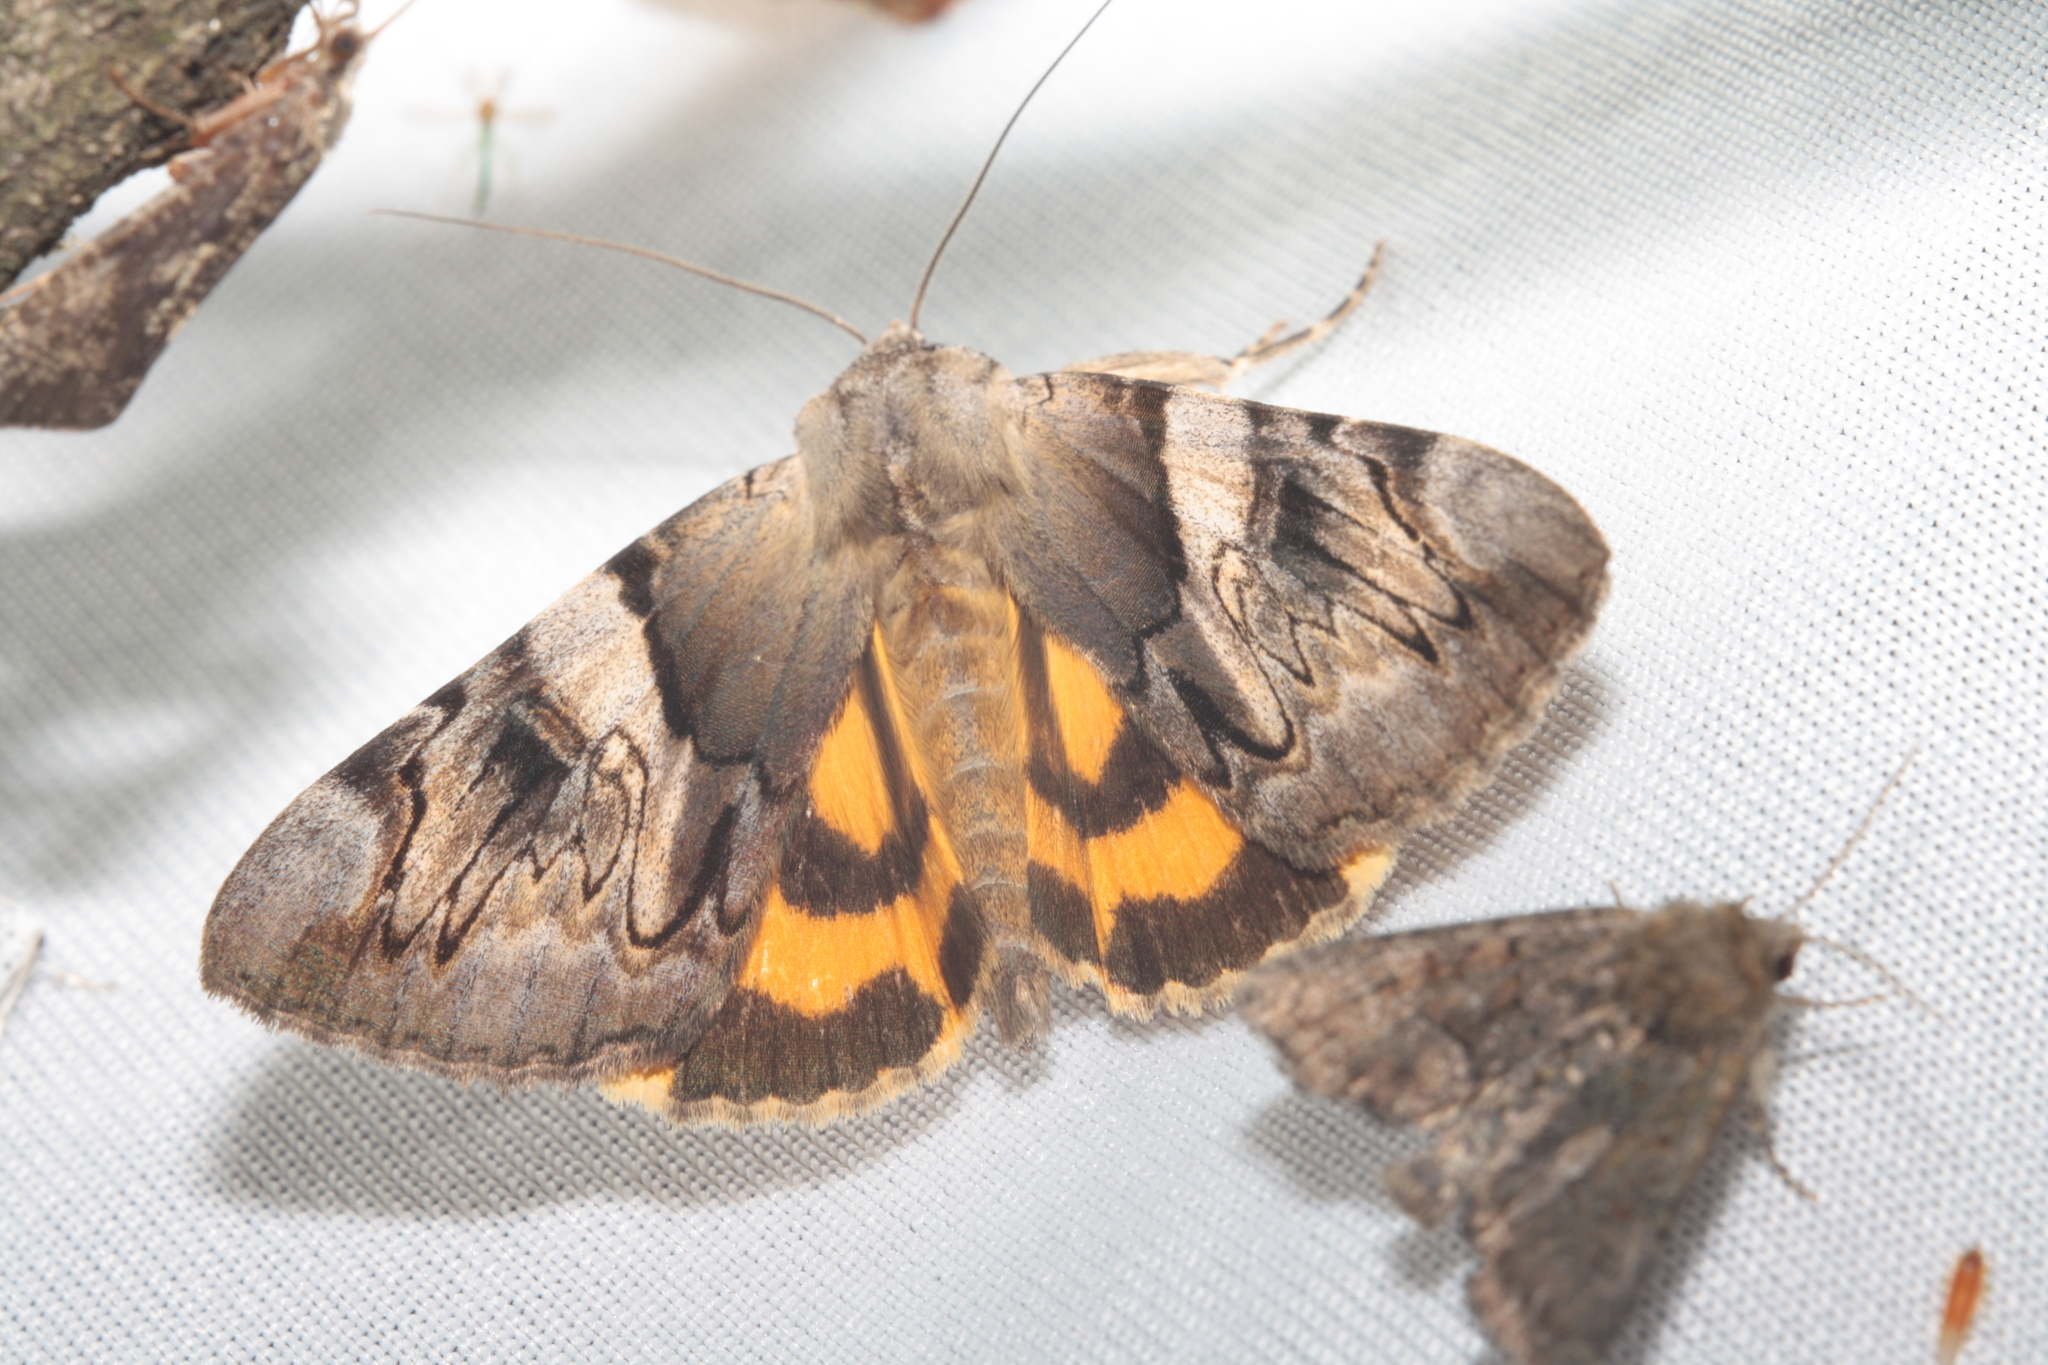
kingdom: Animalia
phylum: Arthropoda
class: Insecta
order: Lepidoptera
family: Erebidae
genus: Catocala
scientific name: Catocala fulminea
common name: Yellow bands underwing
